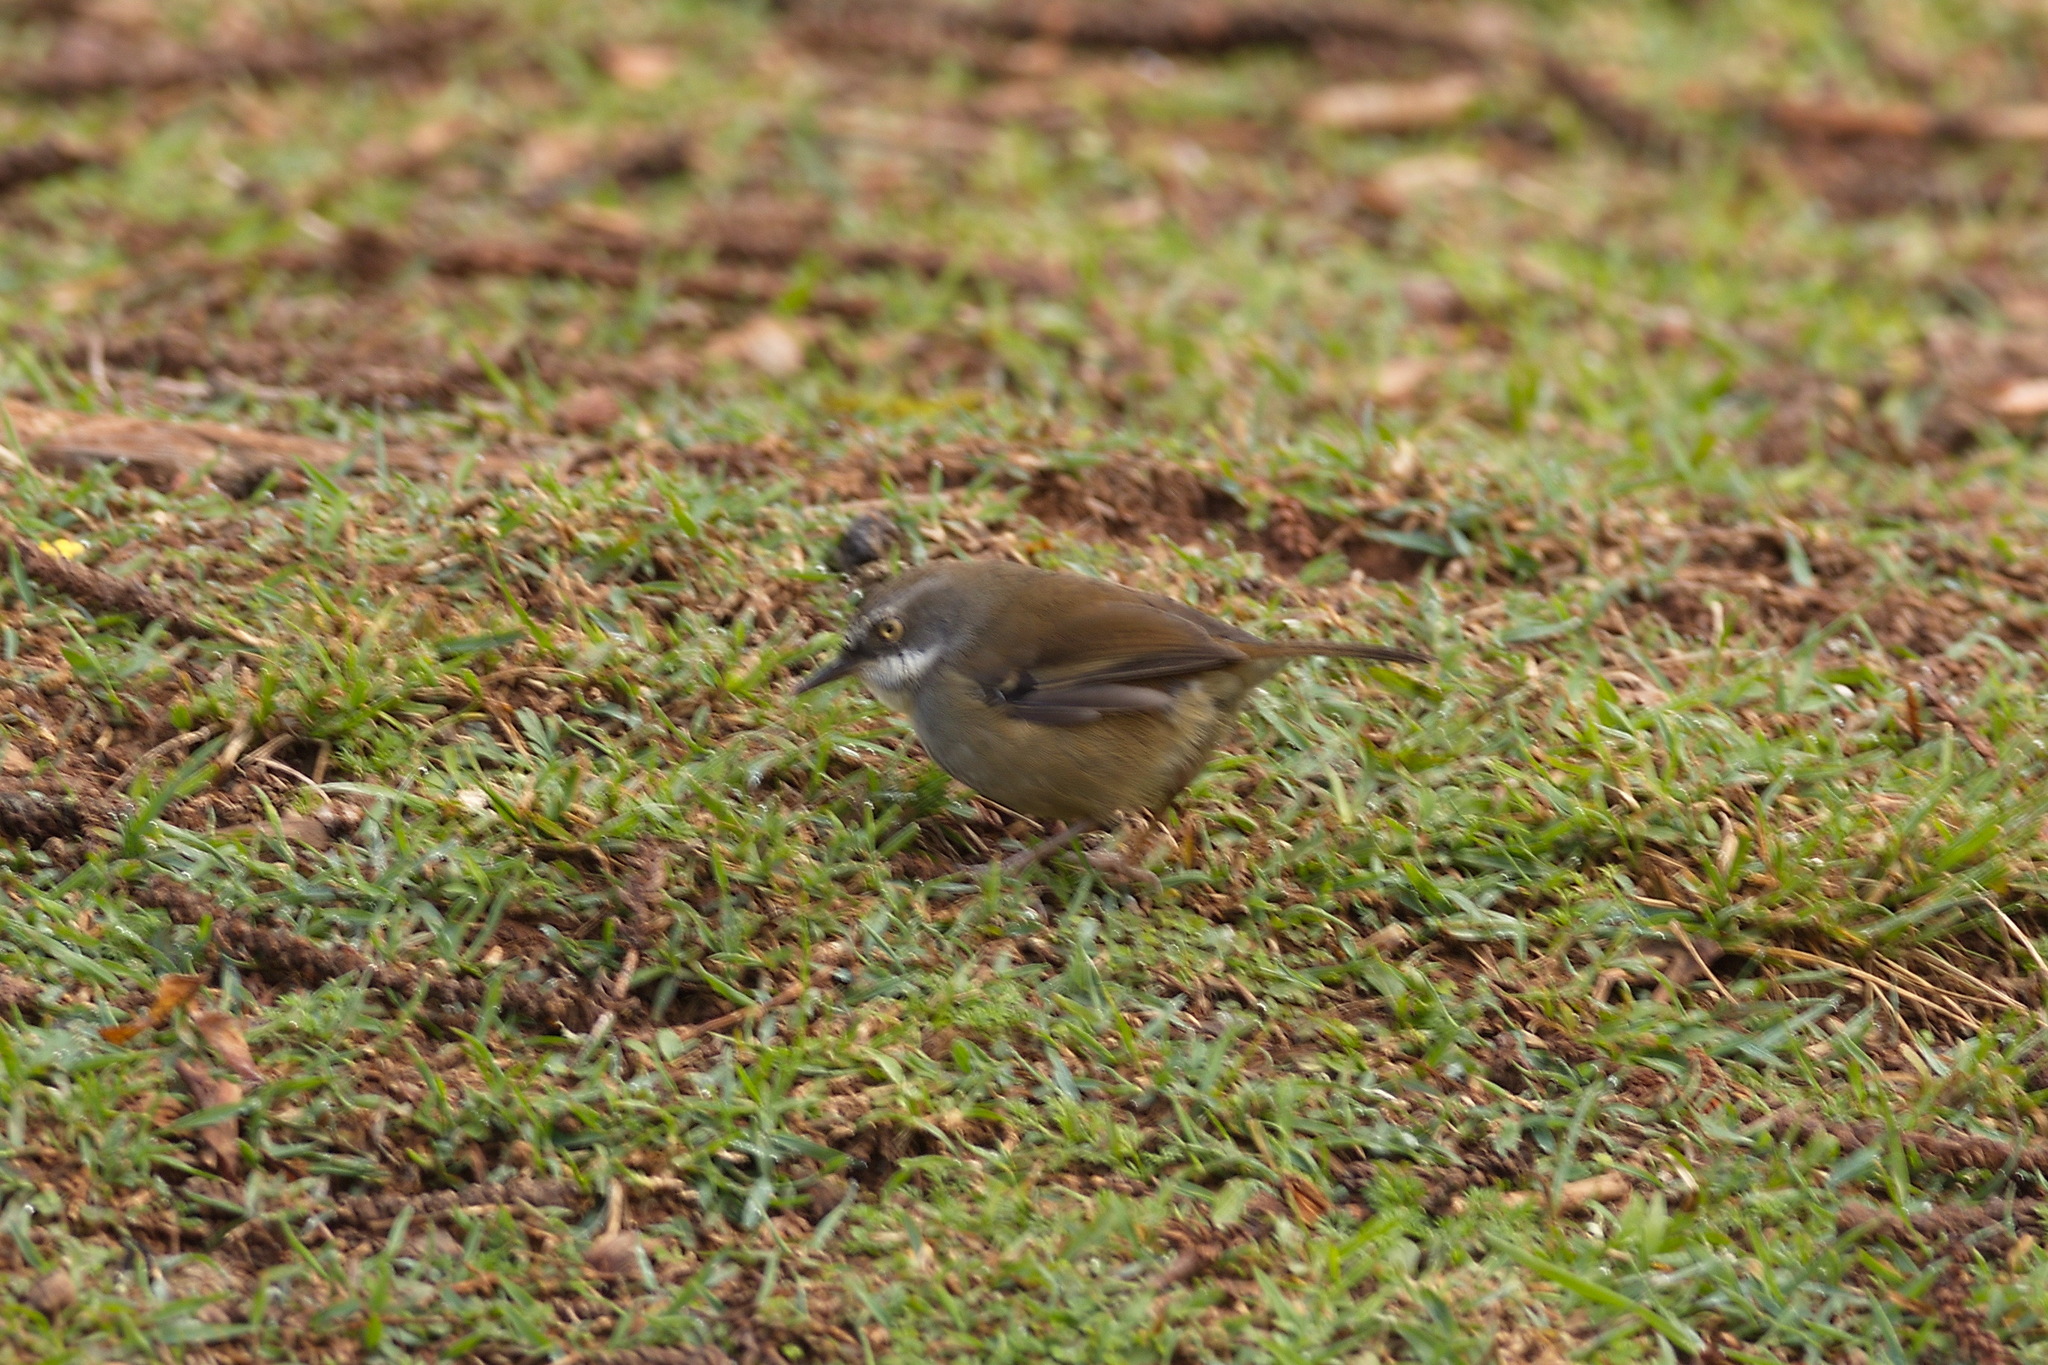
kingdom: Animalia
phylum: Chordata
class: Aves
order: Passeriformes
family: Acanthizidae
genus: Sericornis
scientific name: Sericornis frontalis
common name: White-browed scrubwren
